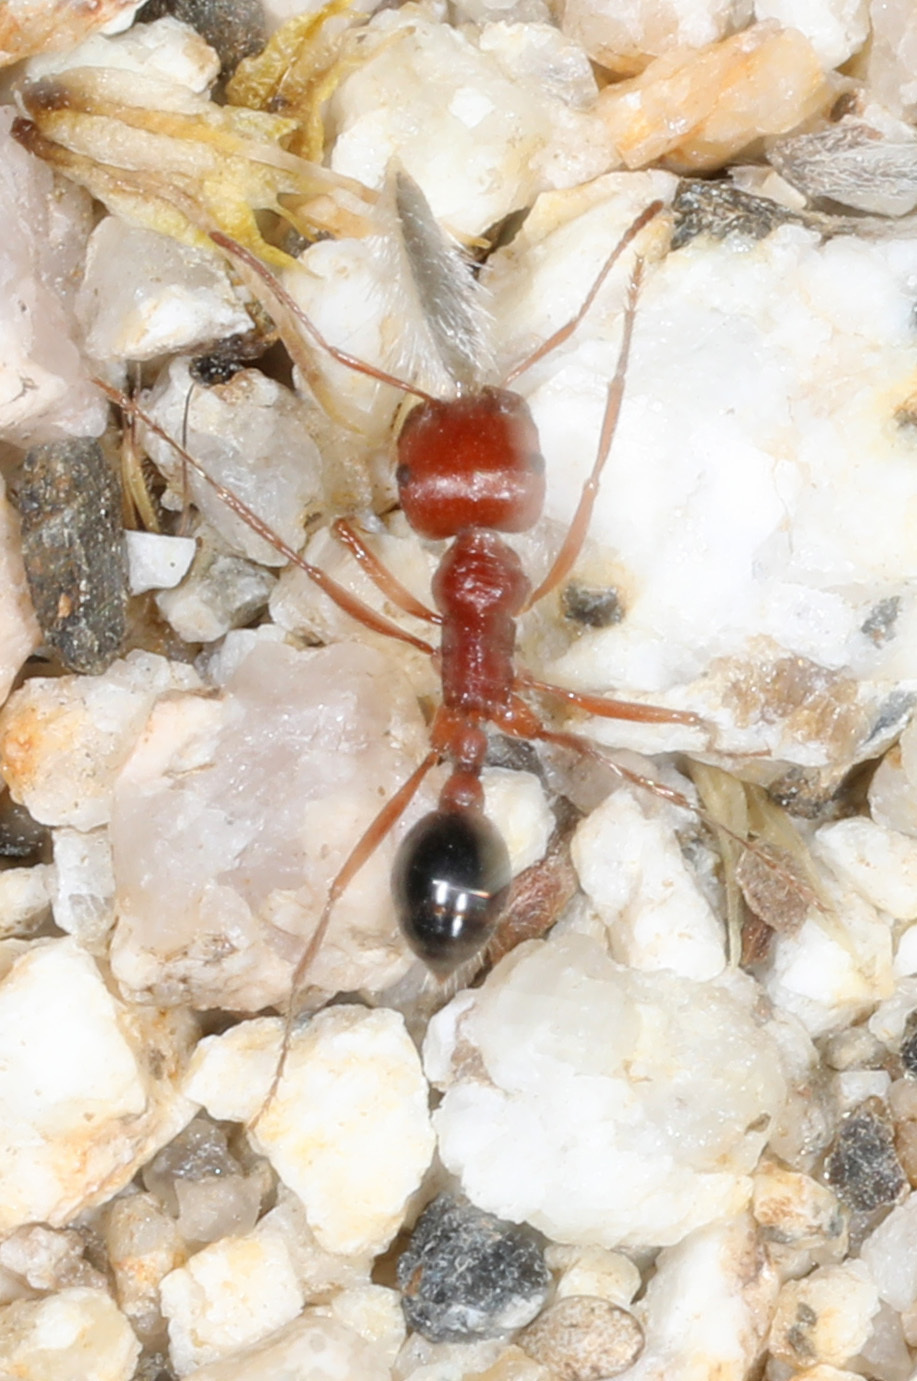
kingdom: Animalia
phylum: Arthropoda
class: Insecta
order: Hymenoptera
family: Formicidae
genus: Pogonomyrmex
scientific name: Pogonomyrmex californicus
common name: California harvester ant
